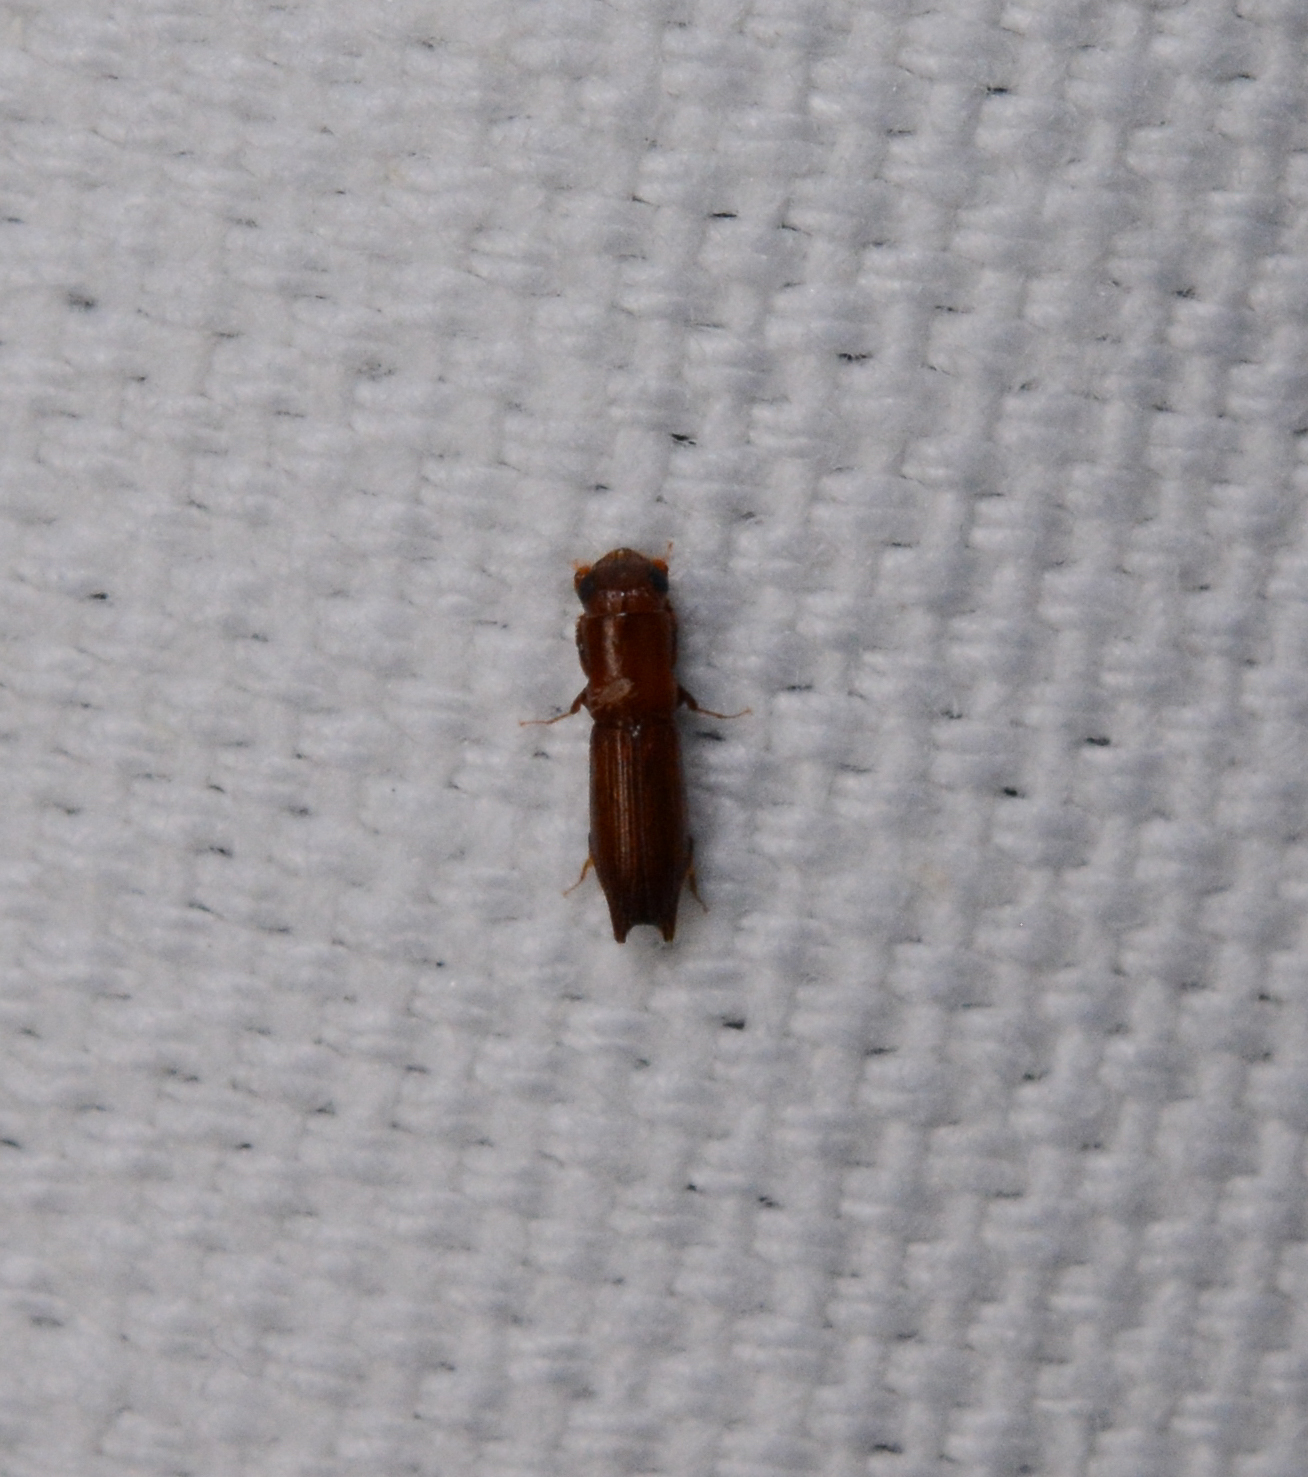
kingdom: Animalia
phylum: Arthropoda
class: Insecta
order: Coleoptera
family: Curculionidae
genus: Euplatypus
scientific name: Euplatypus compositus
